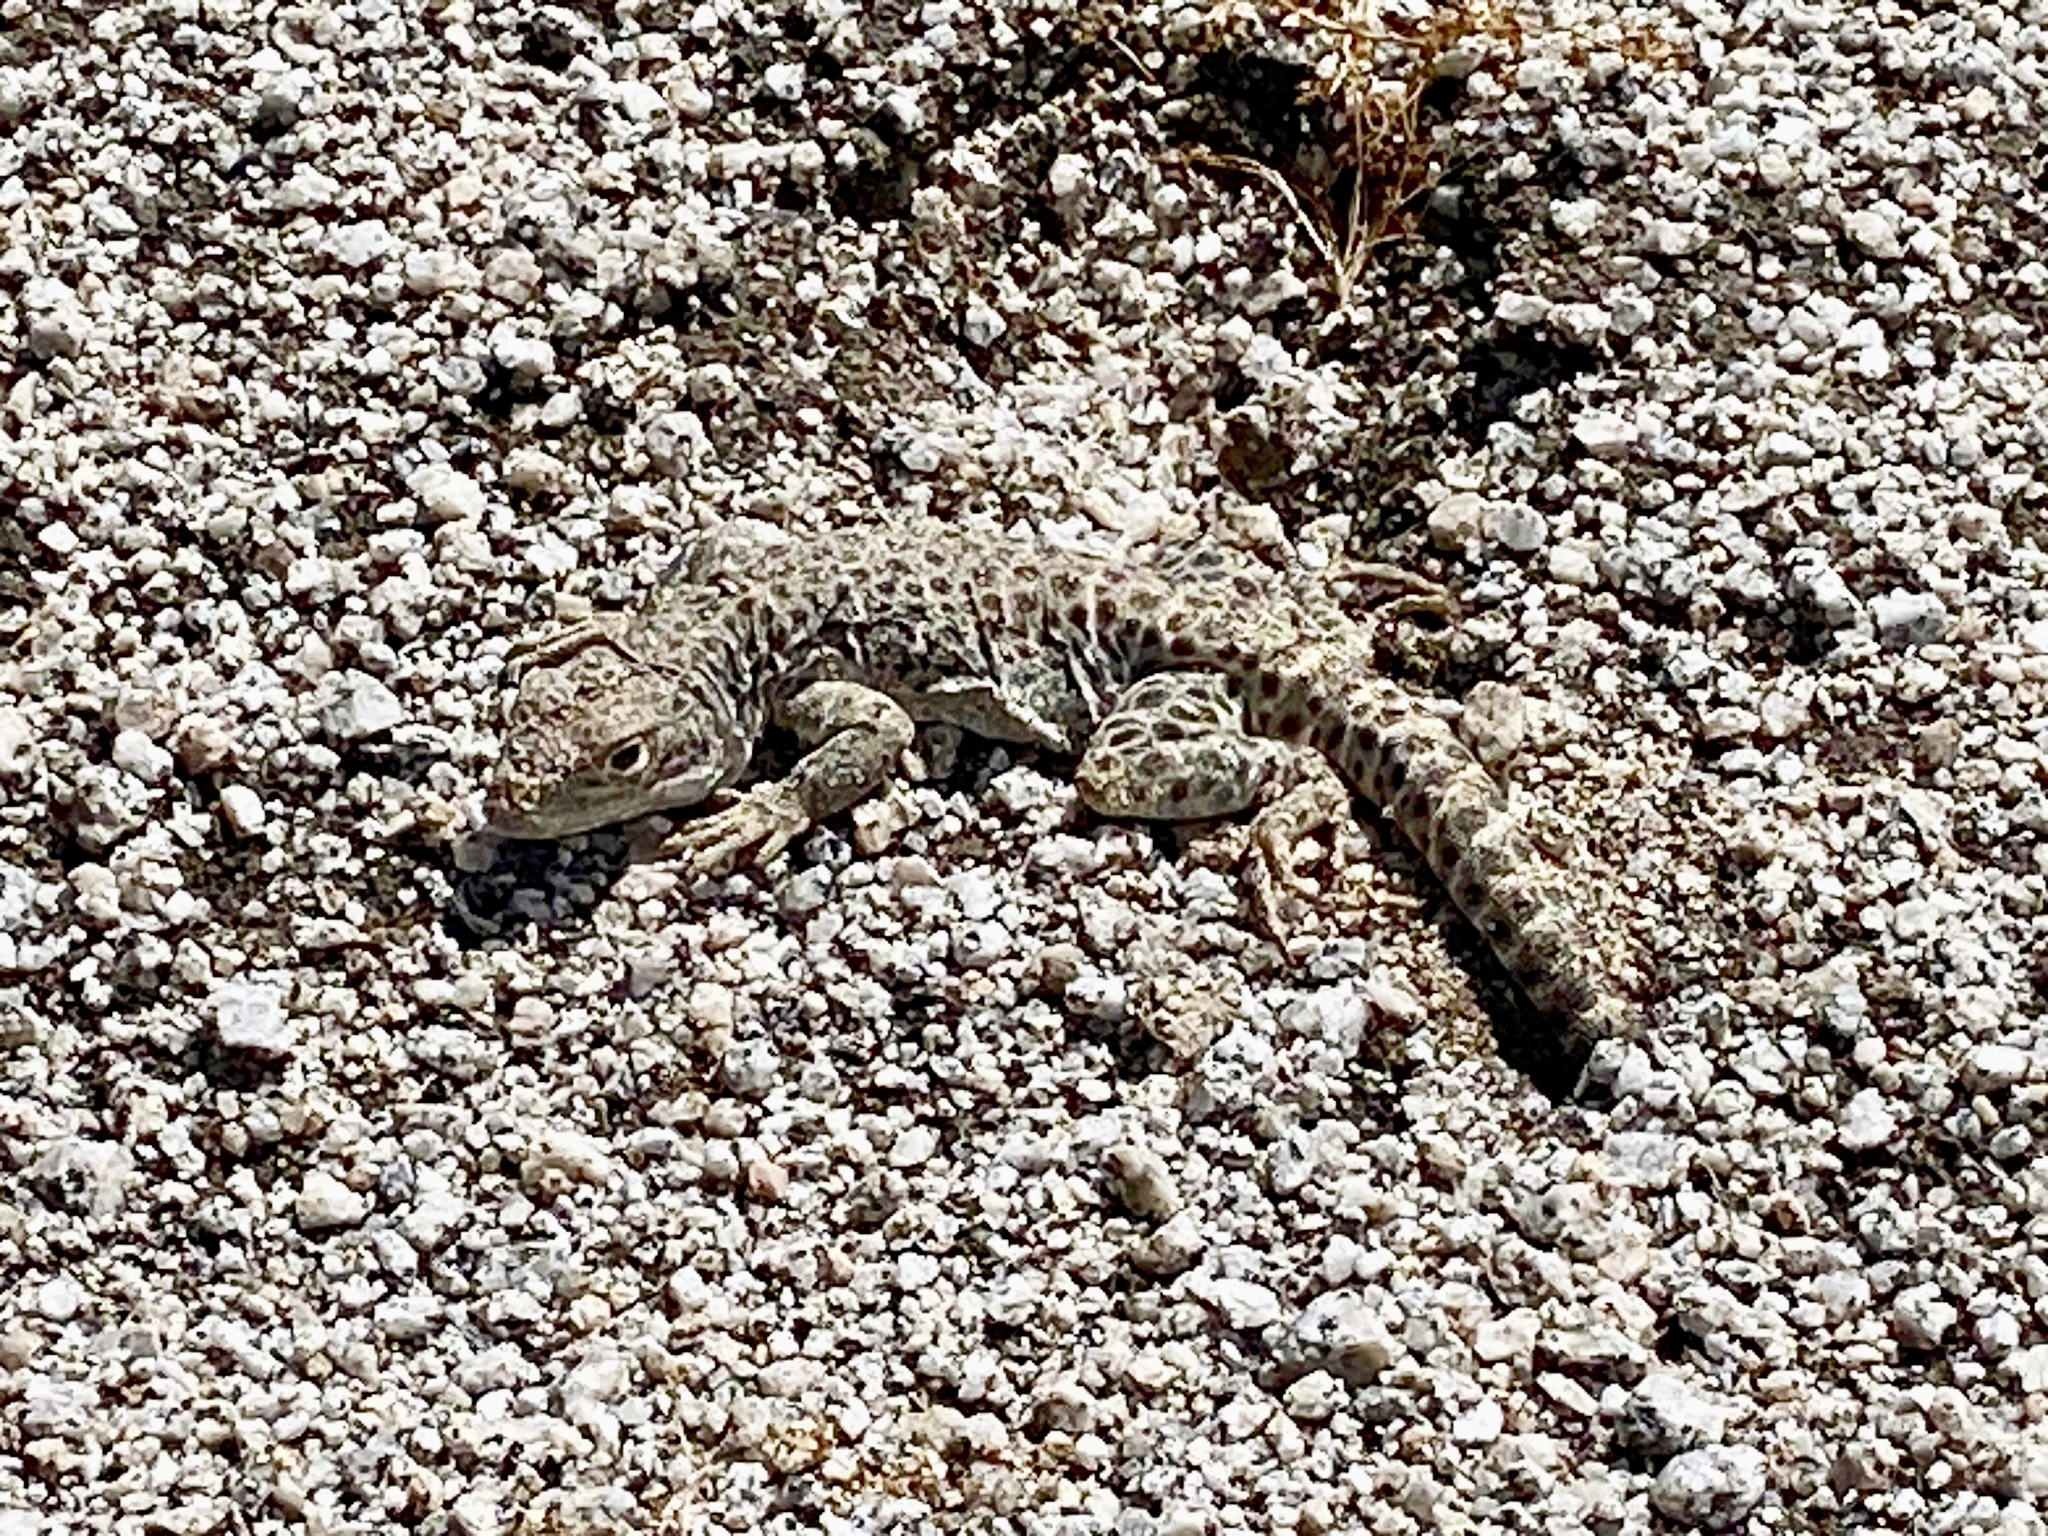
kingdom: Animalia
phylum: Chordata
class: Squamata
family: Crotaphytidae
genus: Gambelia
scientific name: Gambelia wislizenii
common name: Longnose leopard lizard
